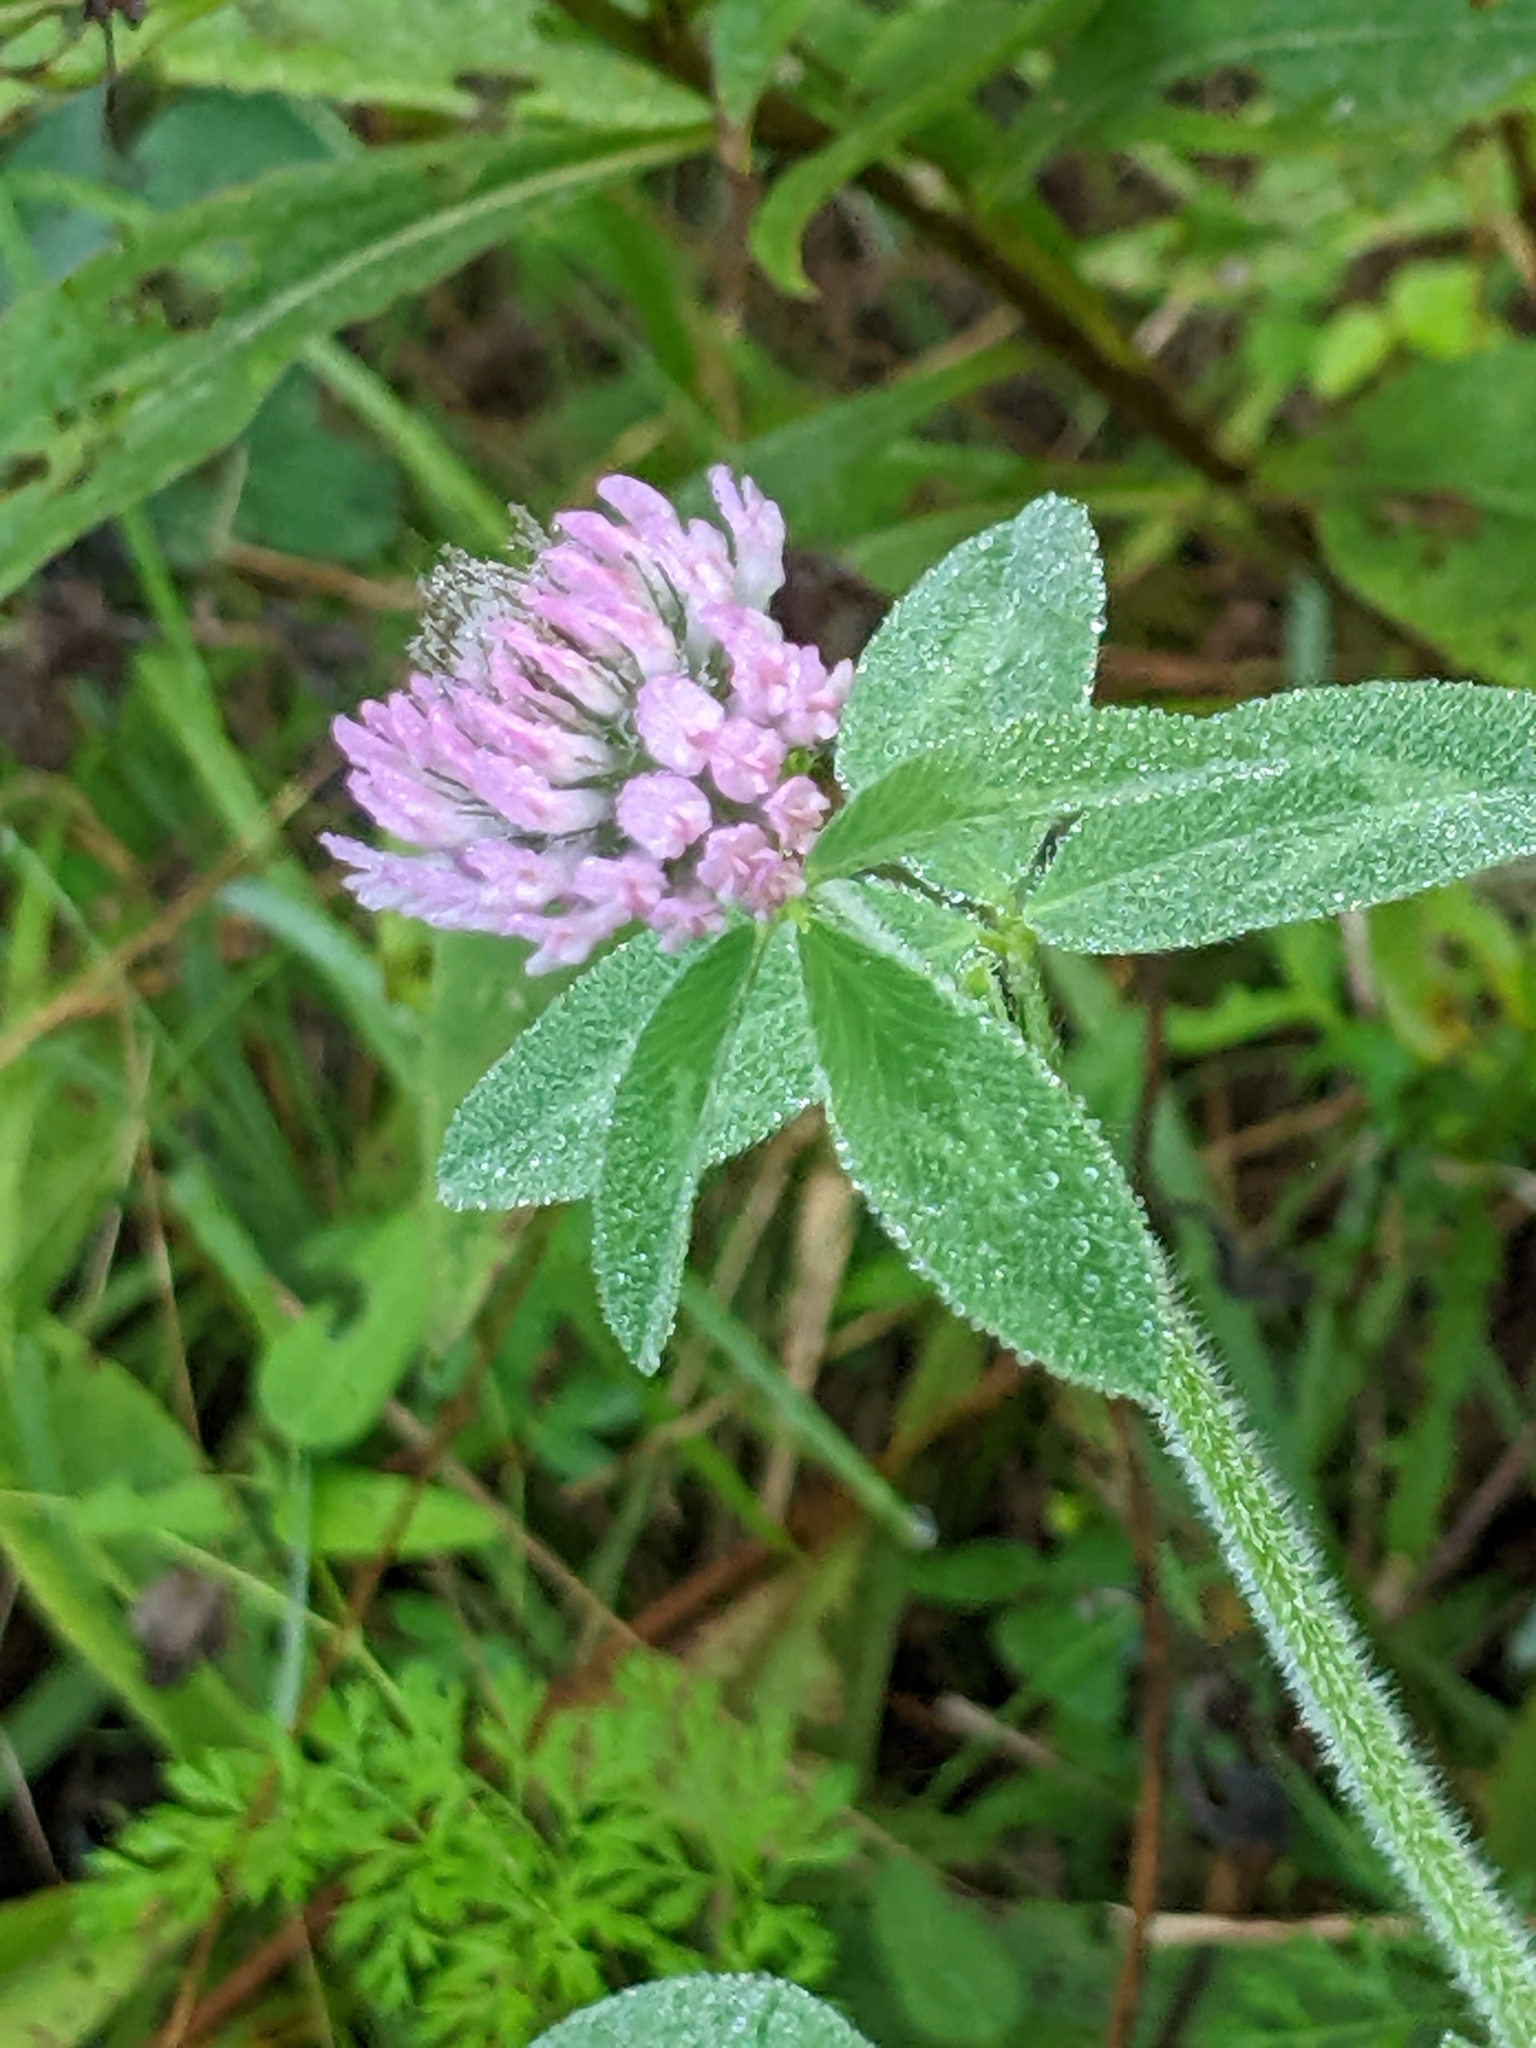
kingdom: Plantae
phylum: Tracheophyta
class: Magnoliopsida
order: Fabales
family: Fabaceae
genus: Trifolium
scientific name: Trifolium pratense
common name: Red clover
